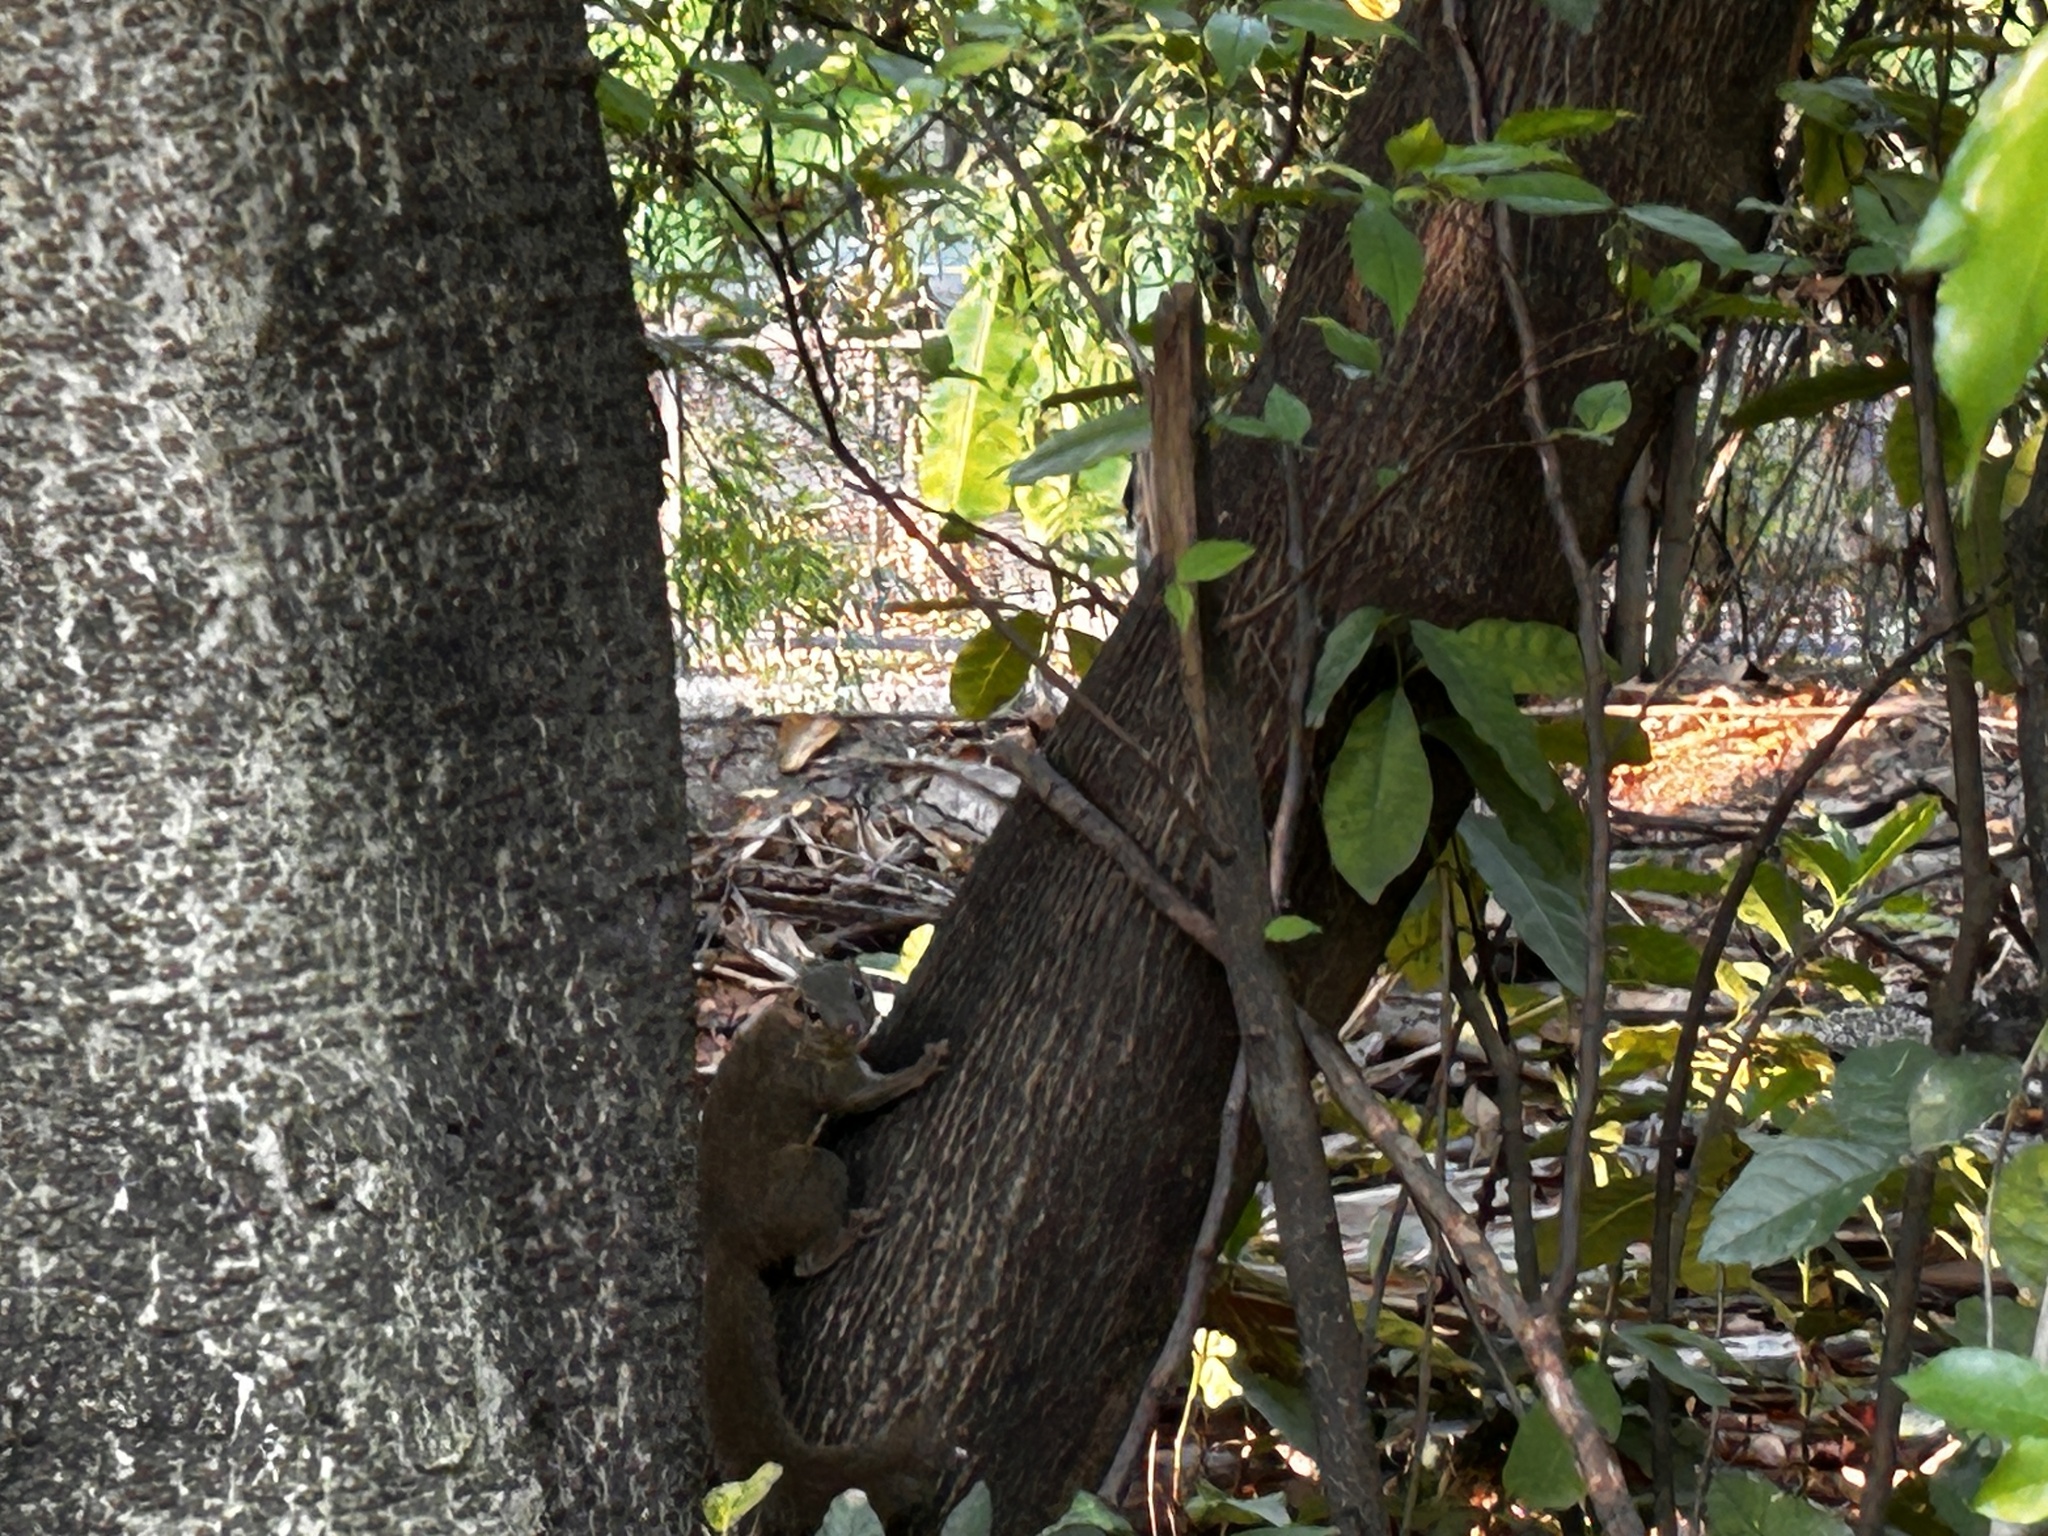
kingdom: Animalia
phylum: Chordata
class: Mammalia
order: Scandentia
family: Tupaiidae
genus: Tupaia
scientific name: Tupaia belangeri
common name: Northern treeshrew
